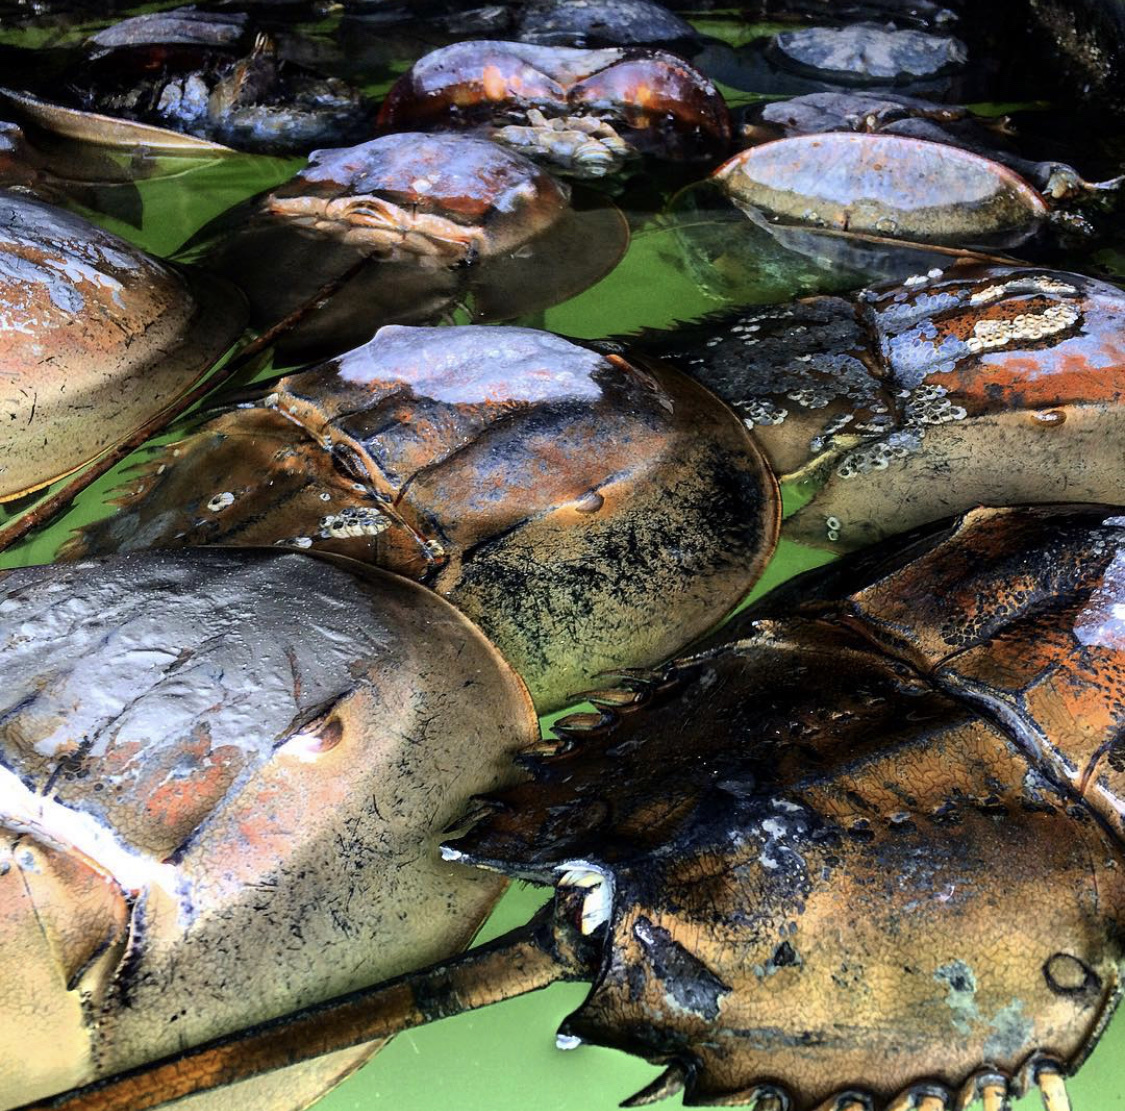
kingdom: Animalia
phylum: Arthropoda
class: Merostomata
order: Xiphosurida
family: Limulidae
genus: Limulus
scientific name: Limulus polyphemus
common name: Horseshoe crab
